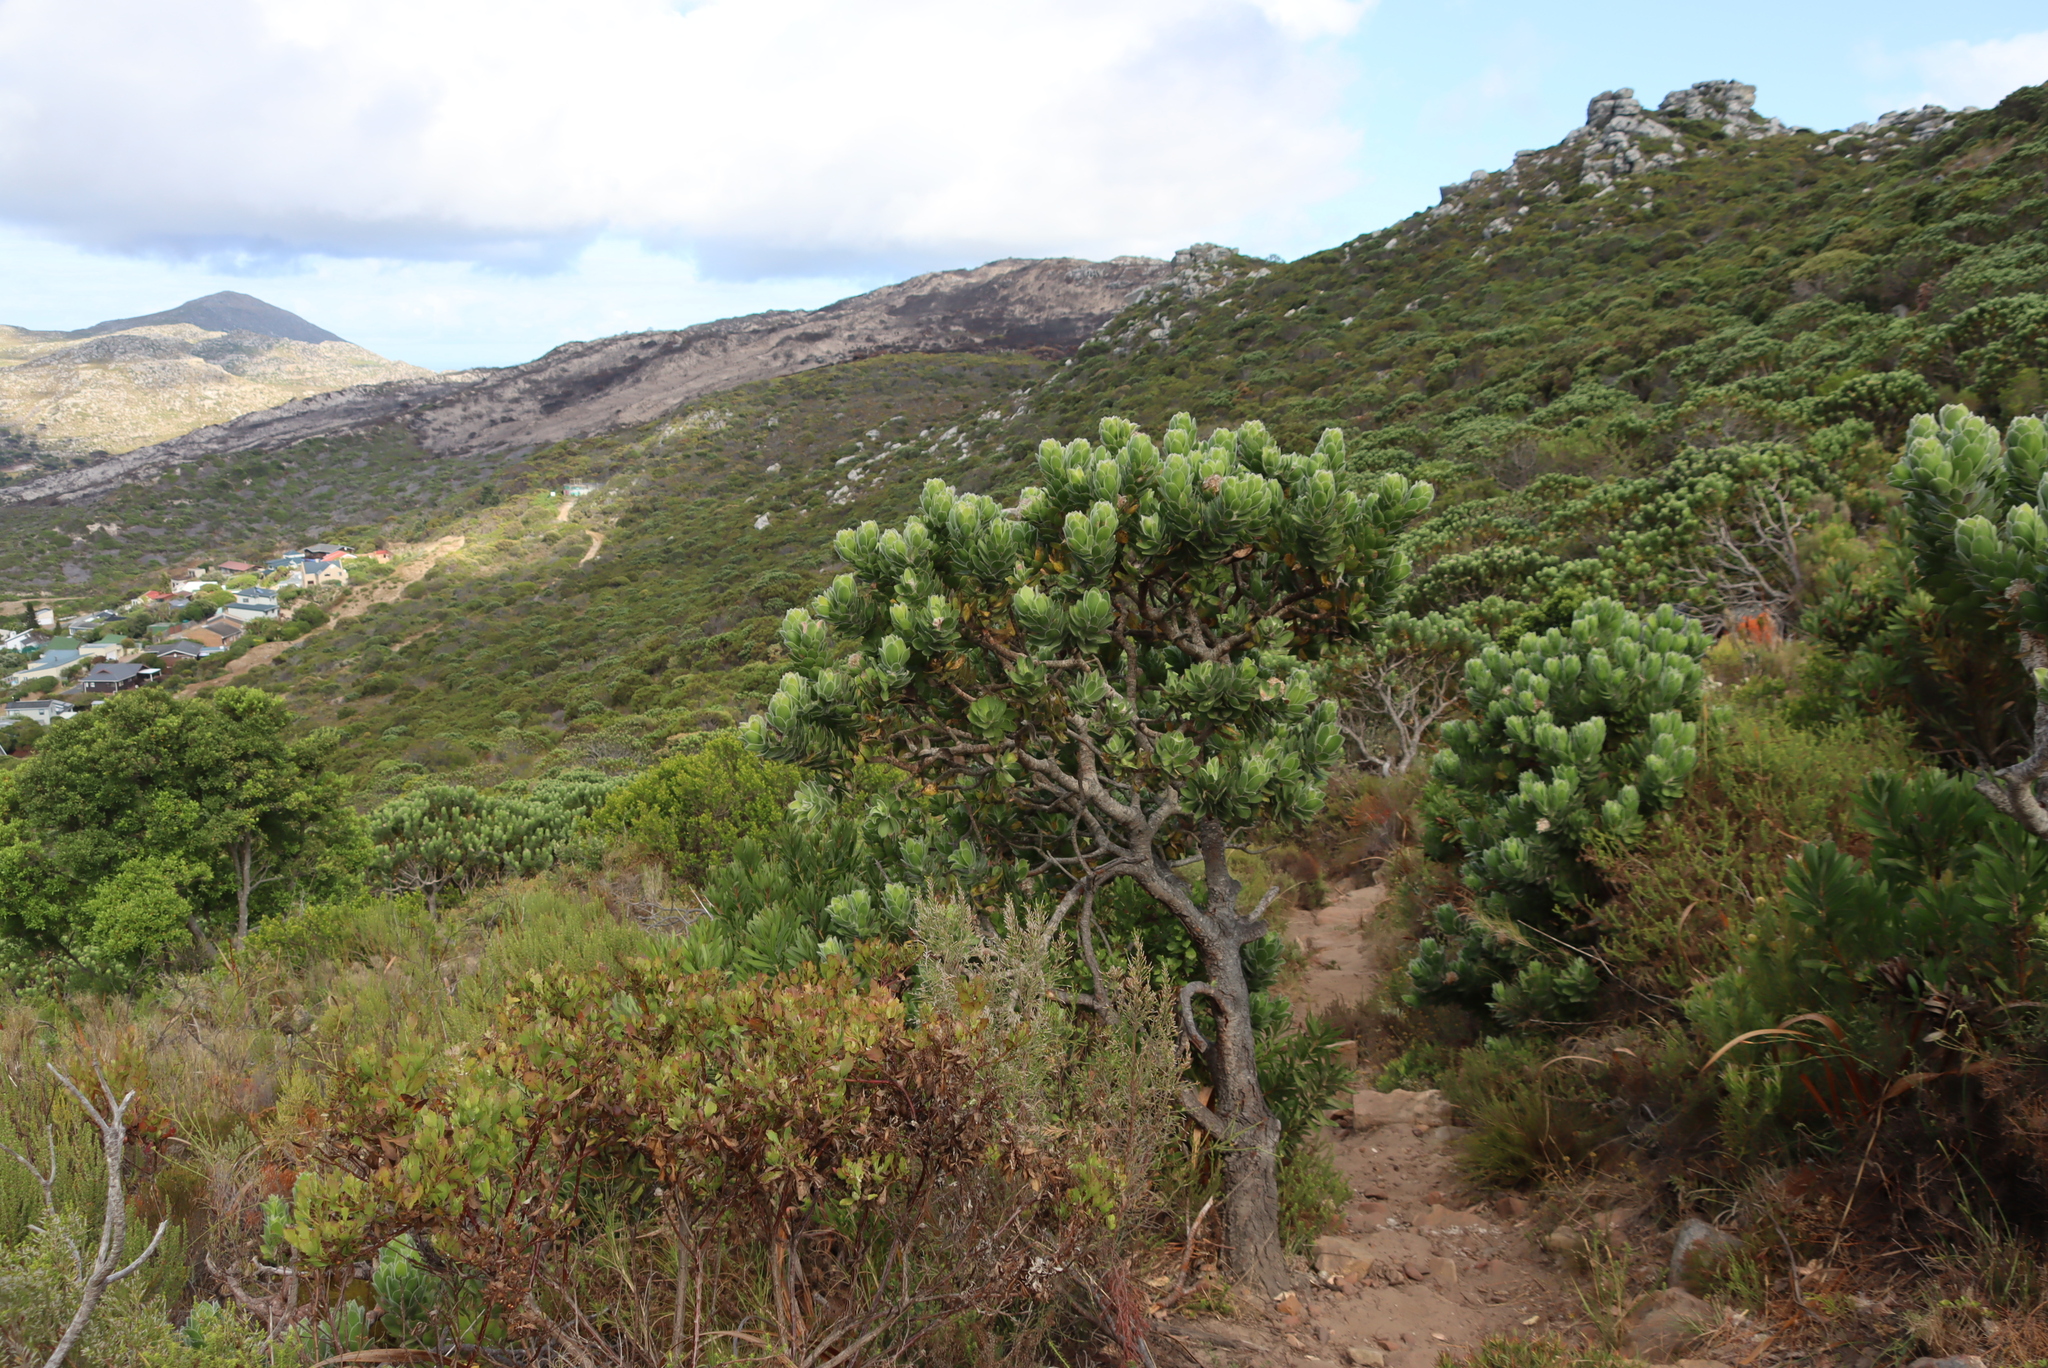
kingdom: Plantae
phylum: Tracheophyta
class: Magnoliopsida
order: Proteales
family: Proteaceae
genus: Leucospermum
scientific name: Leucospermum conocarpodendron
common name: Tree pincushion
